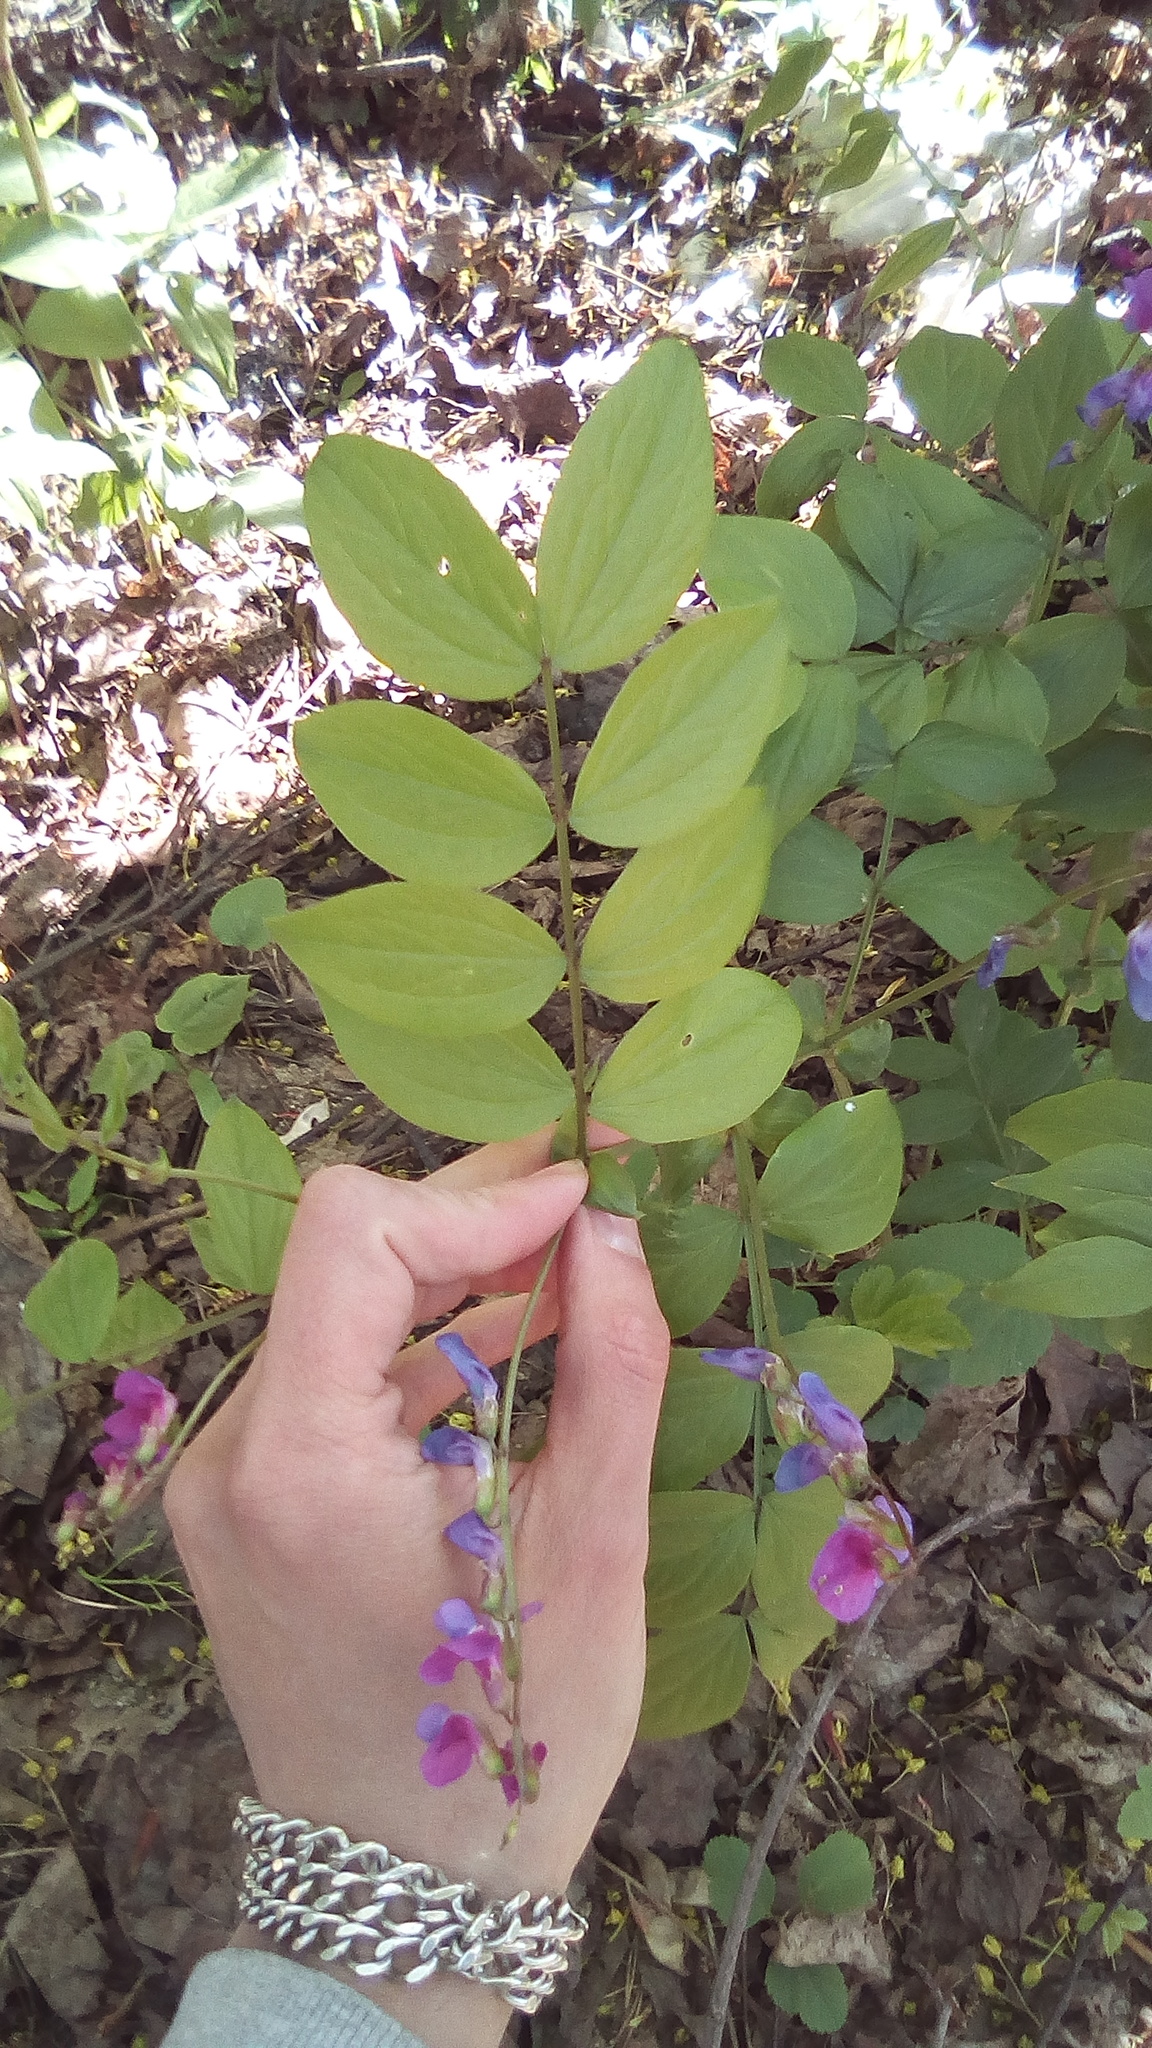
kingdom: Plantae
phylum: Tracheophyta
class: Magnoliopsida
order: Fabales
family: Fabaceae
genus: Lathyrus
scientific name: Lathyrus vernus
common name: Spring pea
